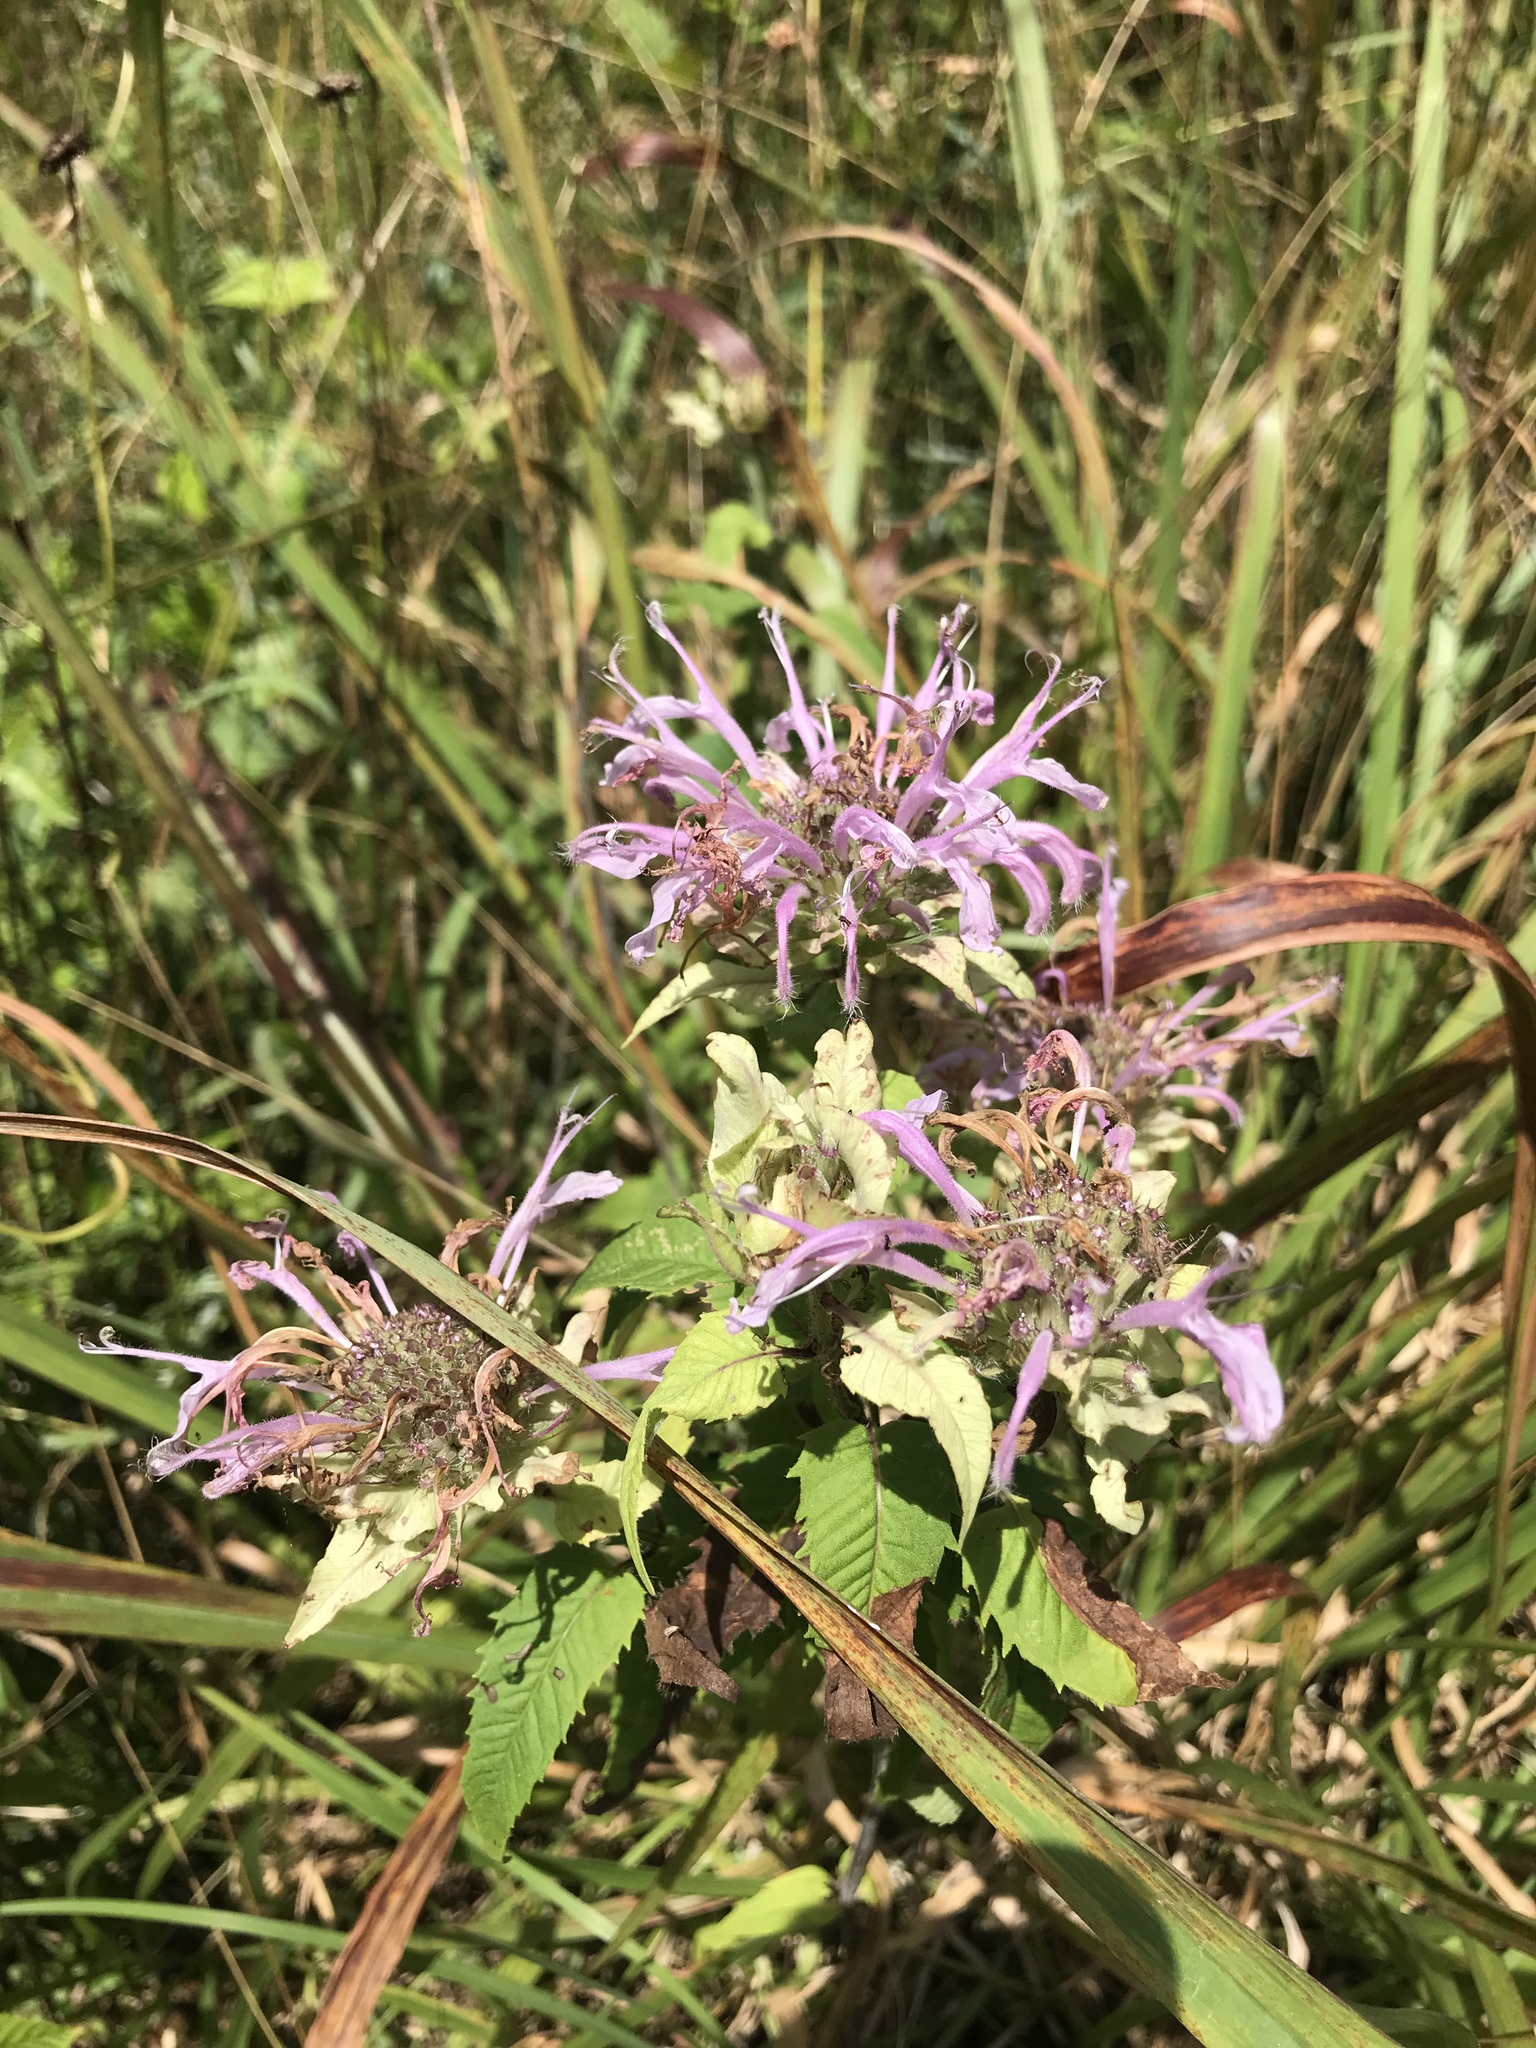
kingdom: Plantae
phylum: Tracheophyta
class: Magnoliopsida
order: Lamiales
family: Lamiaceae
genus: Monarda
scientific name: Monarda fistulosa
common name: Purple beebalm
